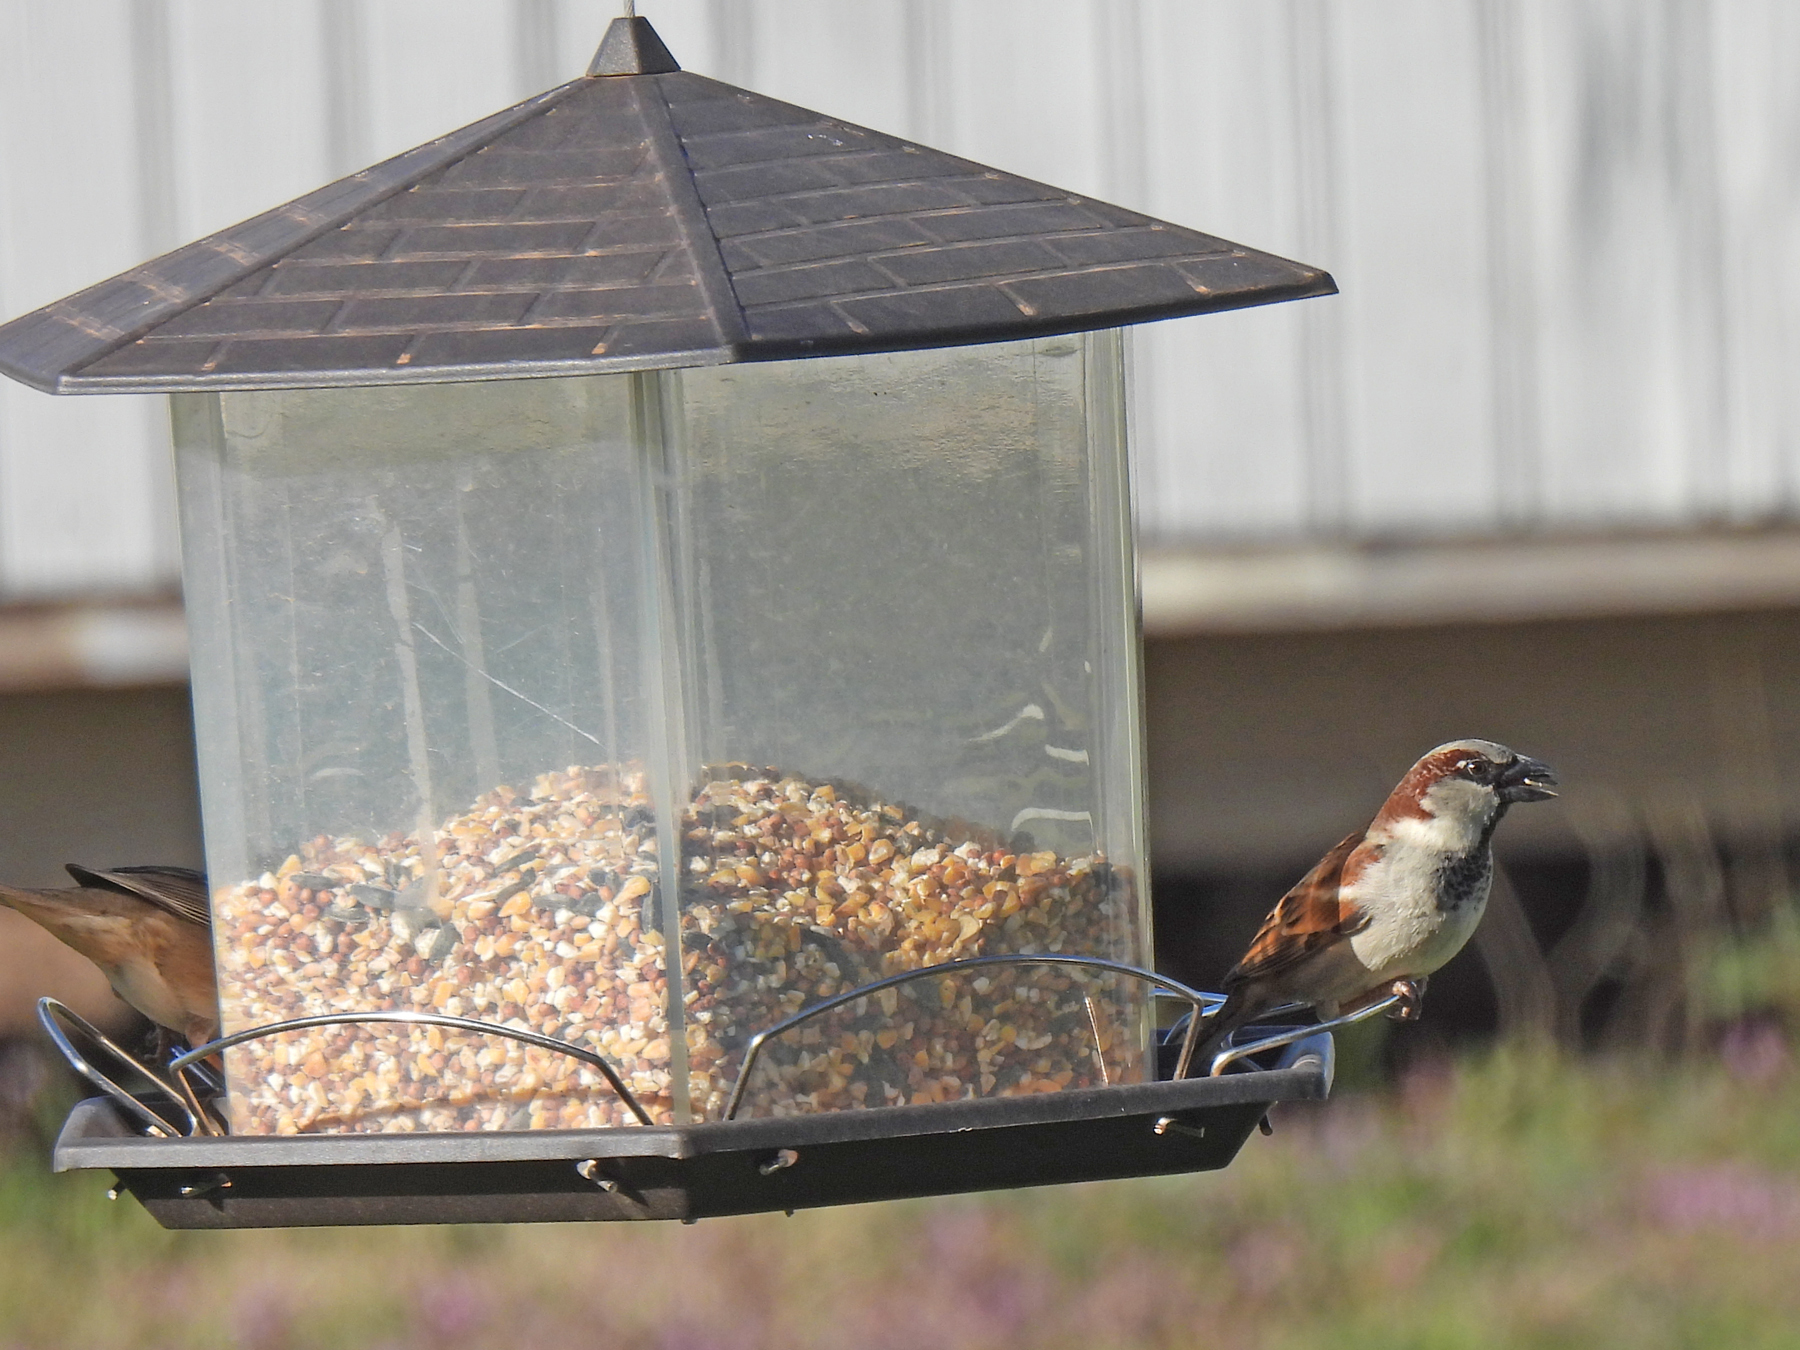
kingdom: Animalia
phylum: Chordata
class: Aves
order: Passeriformes
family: Passeridae
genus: Passer
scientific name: Passer domesticus
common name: House sparrow
